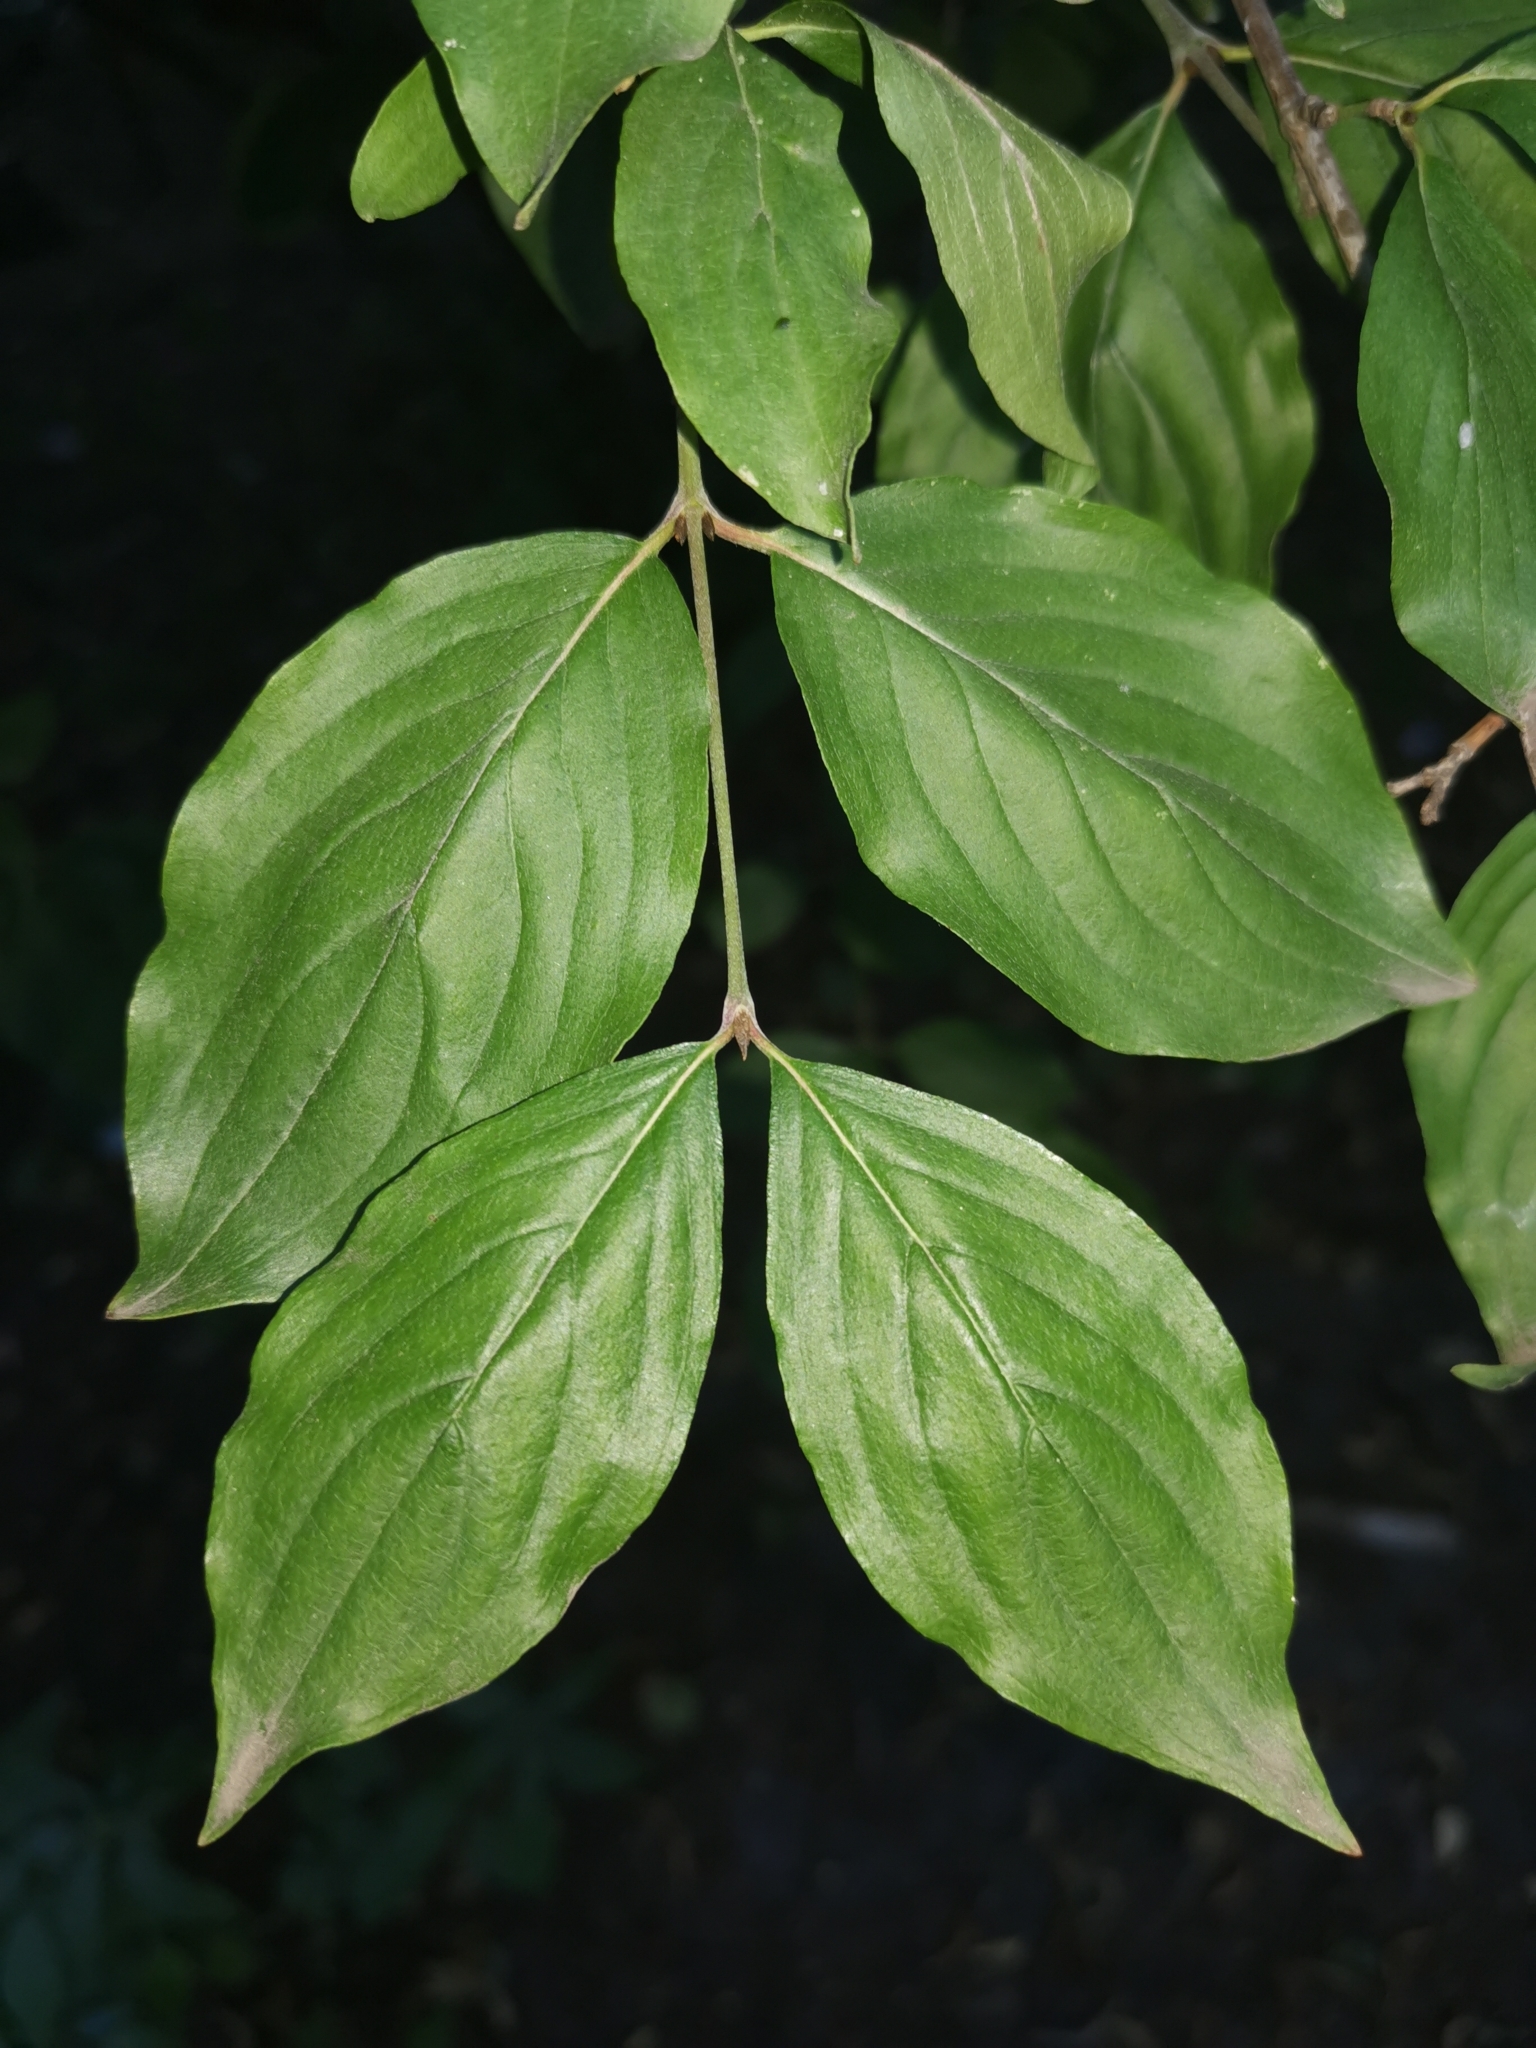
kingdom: Plantae
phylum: Tracheophyta
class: Magnoliopsida
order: Cornales
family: Cornaceae
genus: Cornus
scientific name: Cornus mas
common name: Cornelian-cherry
